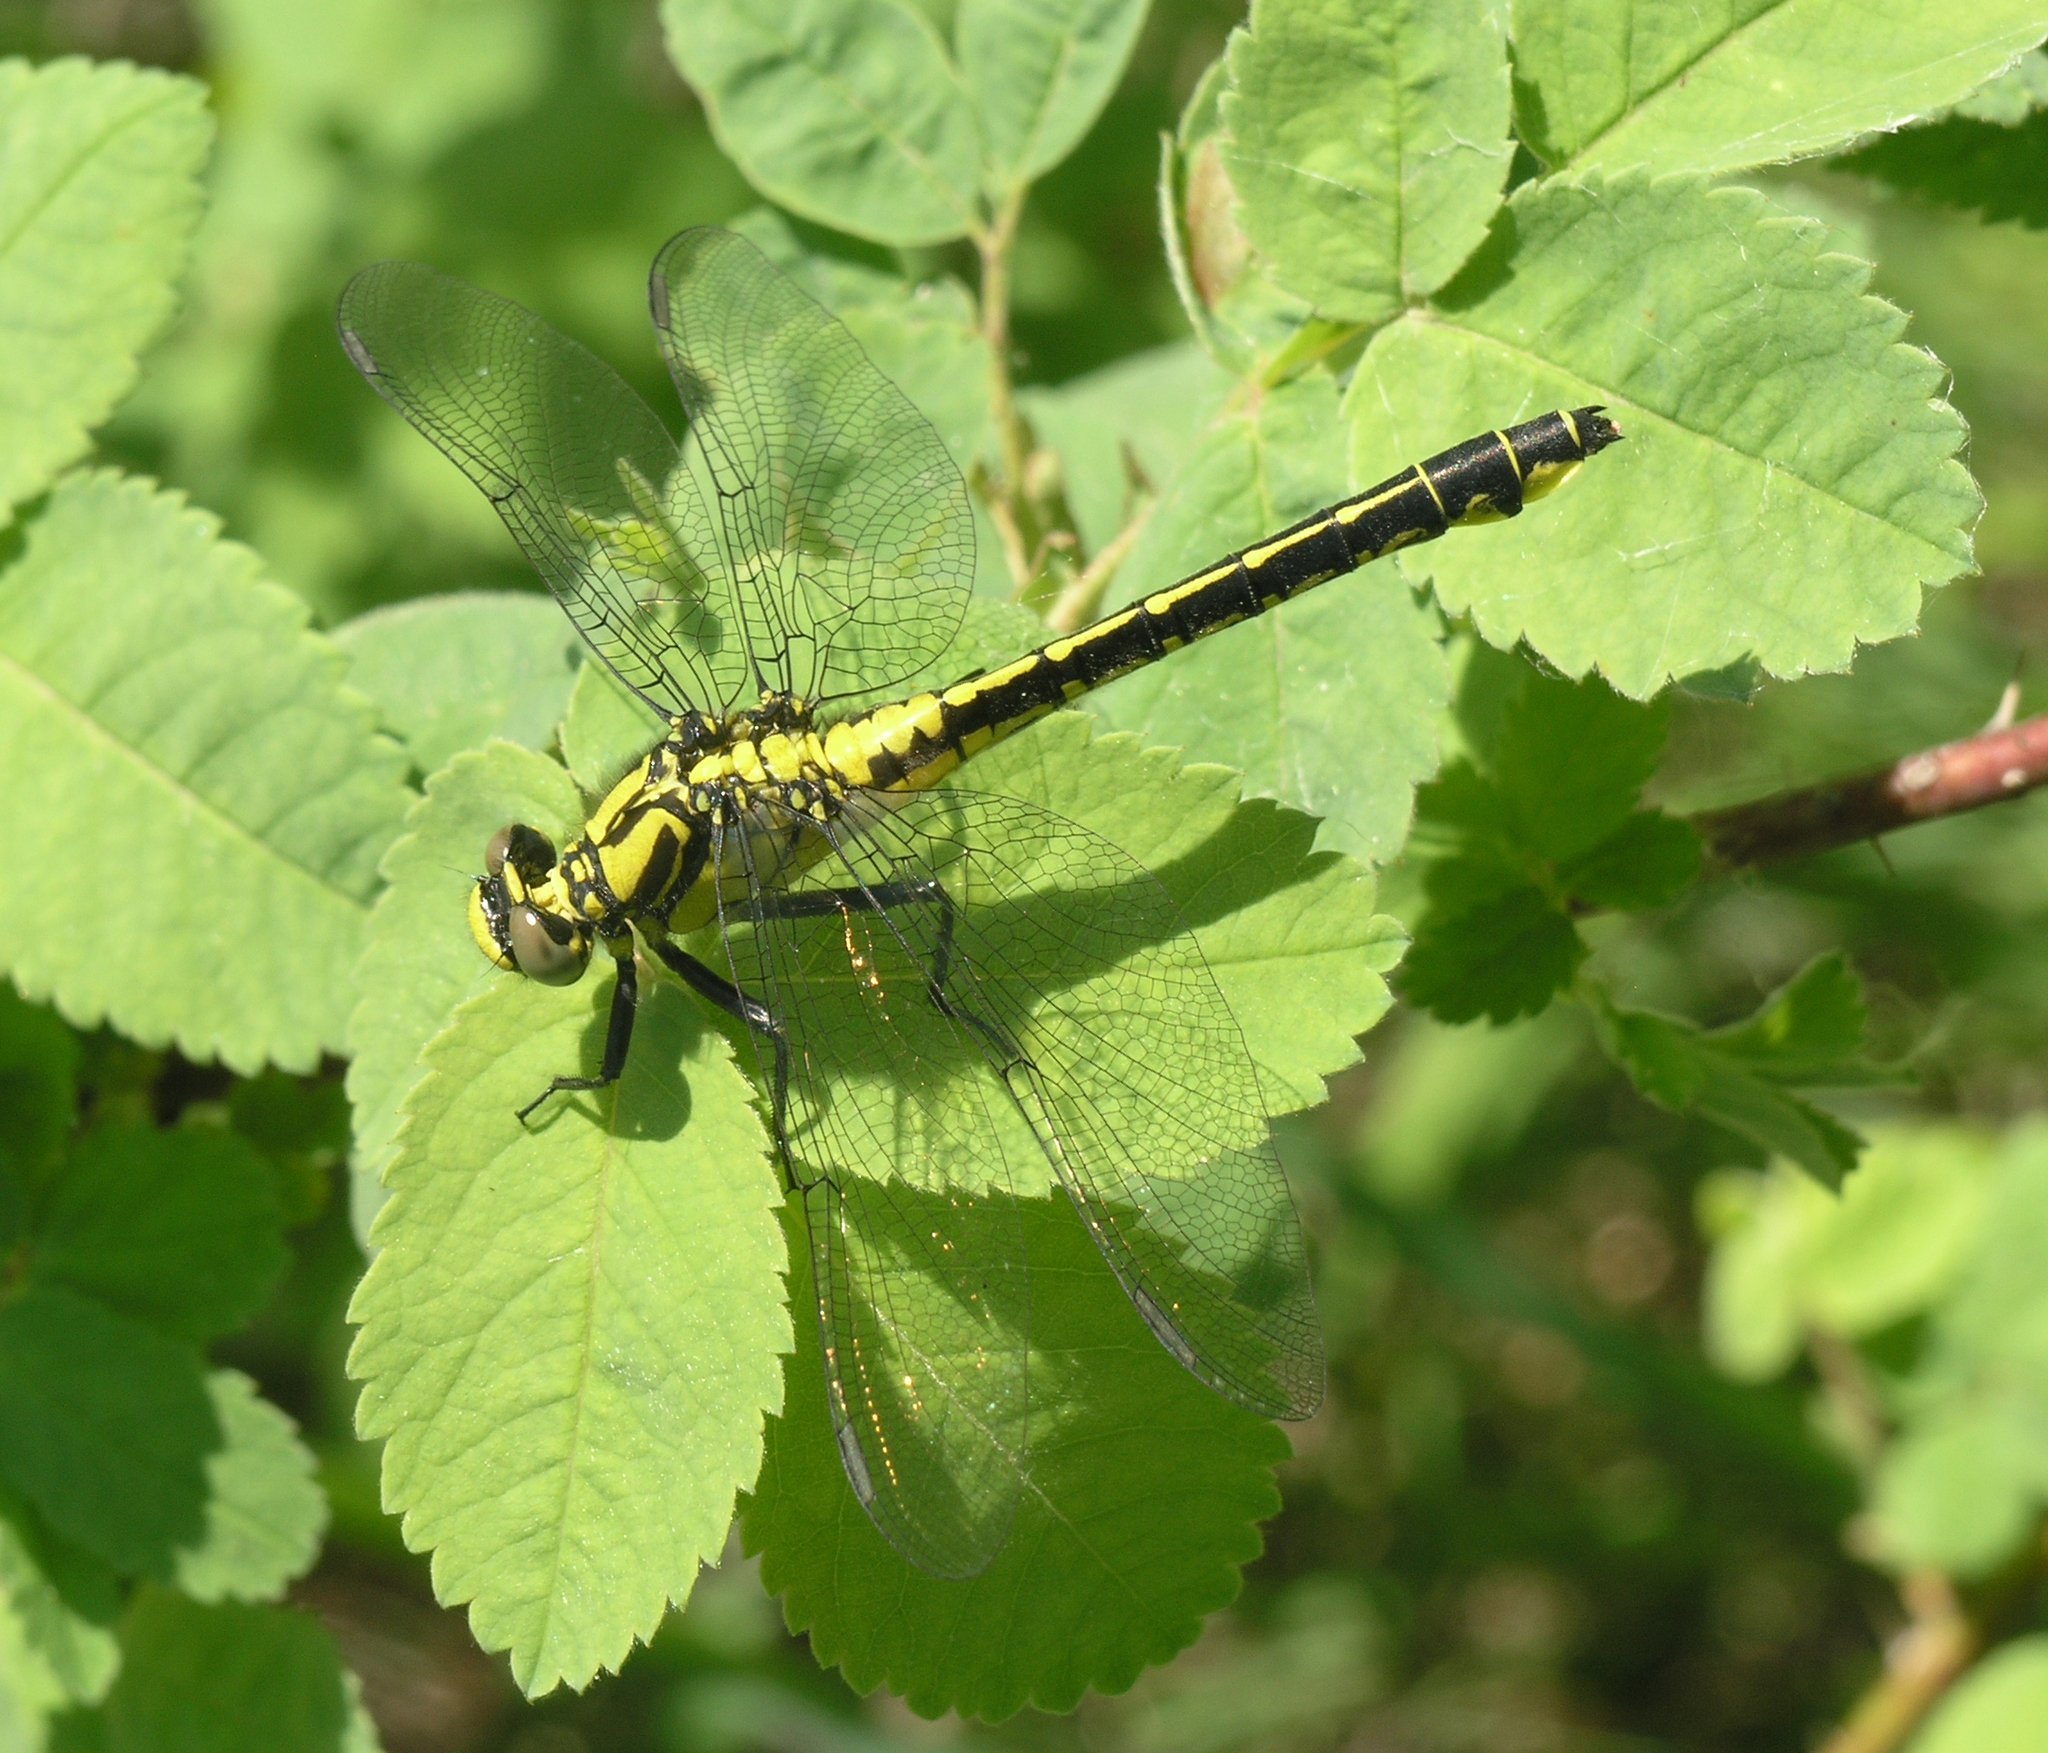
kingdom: Animalia
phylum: Arthropoda
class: Insecta
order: Odonata
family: Gomphidae
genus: Gomphus
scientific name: Gomphus vulgatissimus
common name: Club-tailed dragonfly
